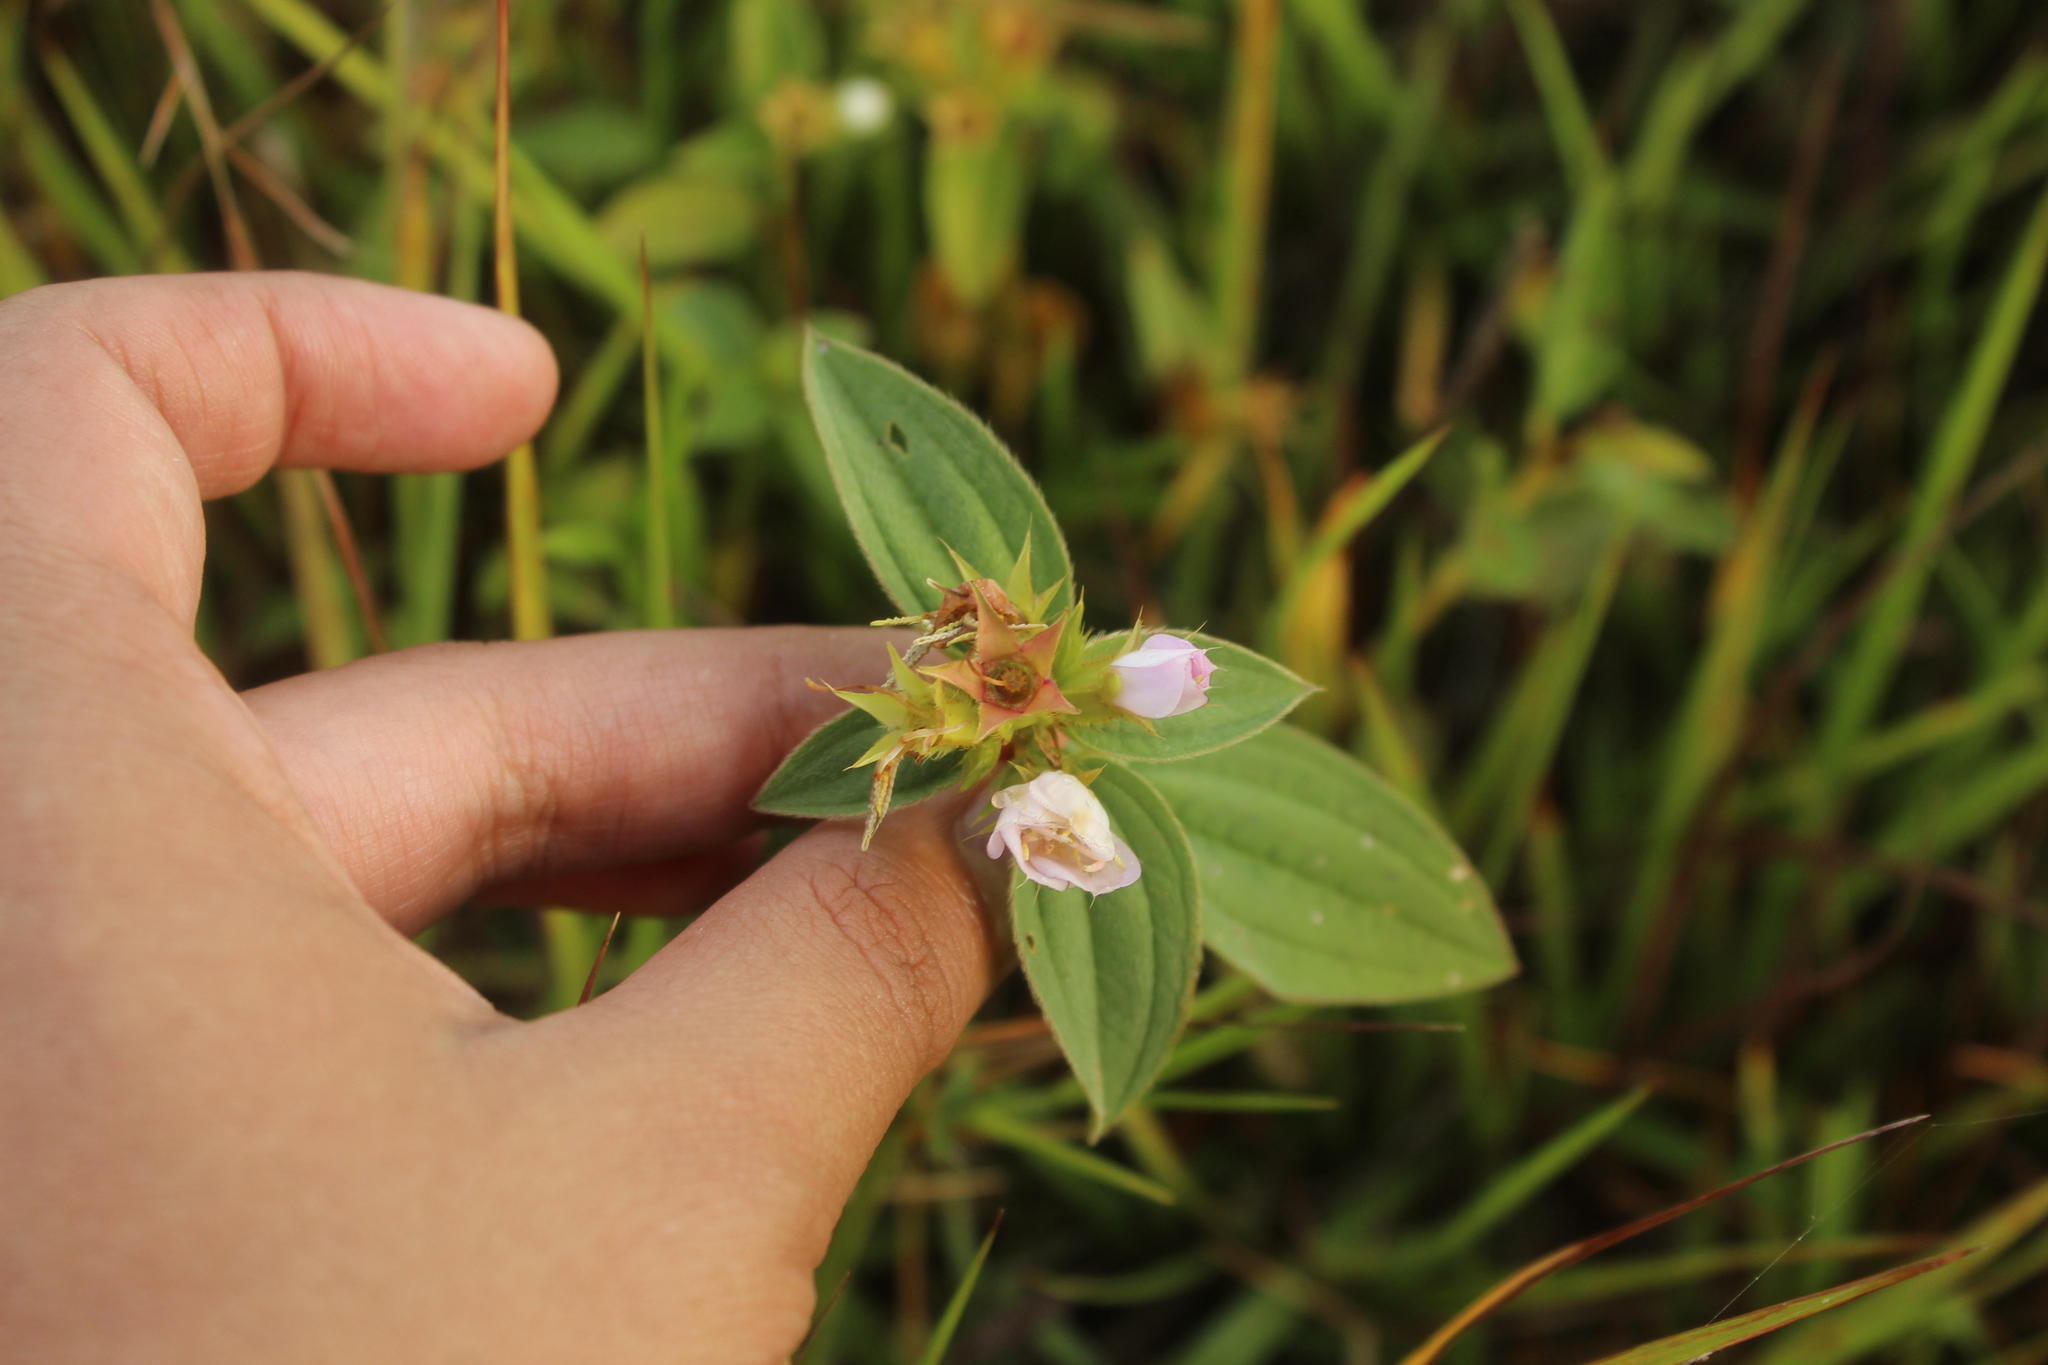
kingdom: Plantae
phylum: Tracheophyta
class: Magnoliopsida
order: Myrtales
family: Melastomataceae
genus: Pterogastra
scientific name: Pterogastra divaricata
